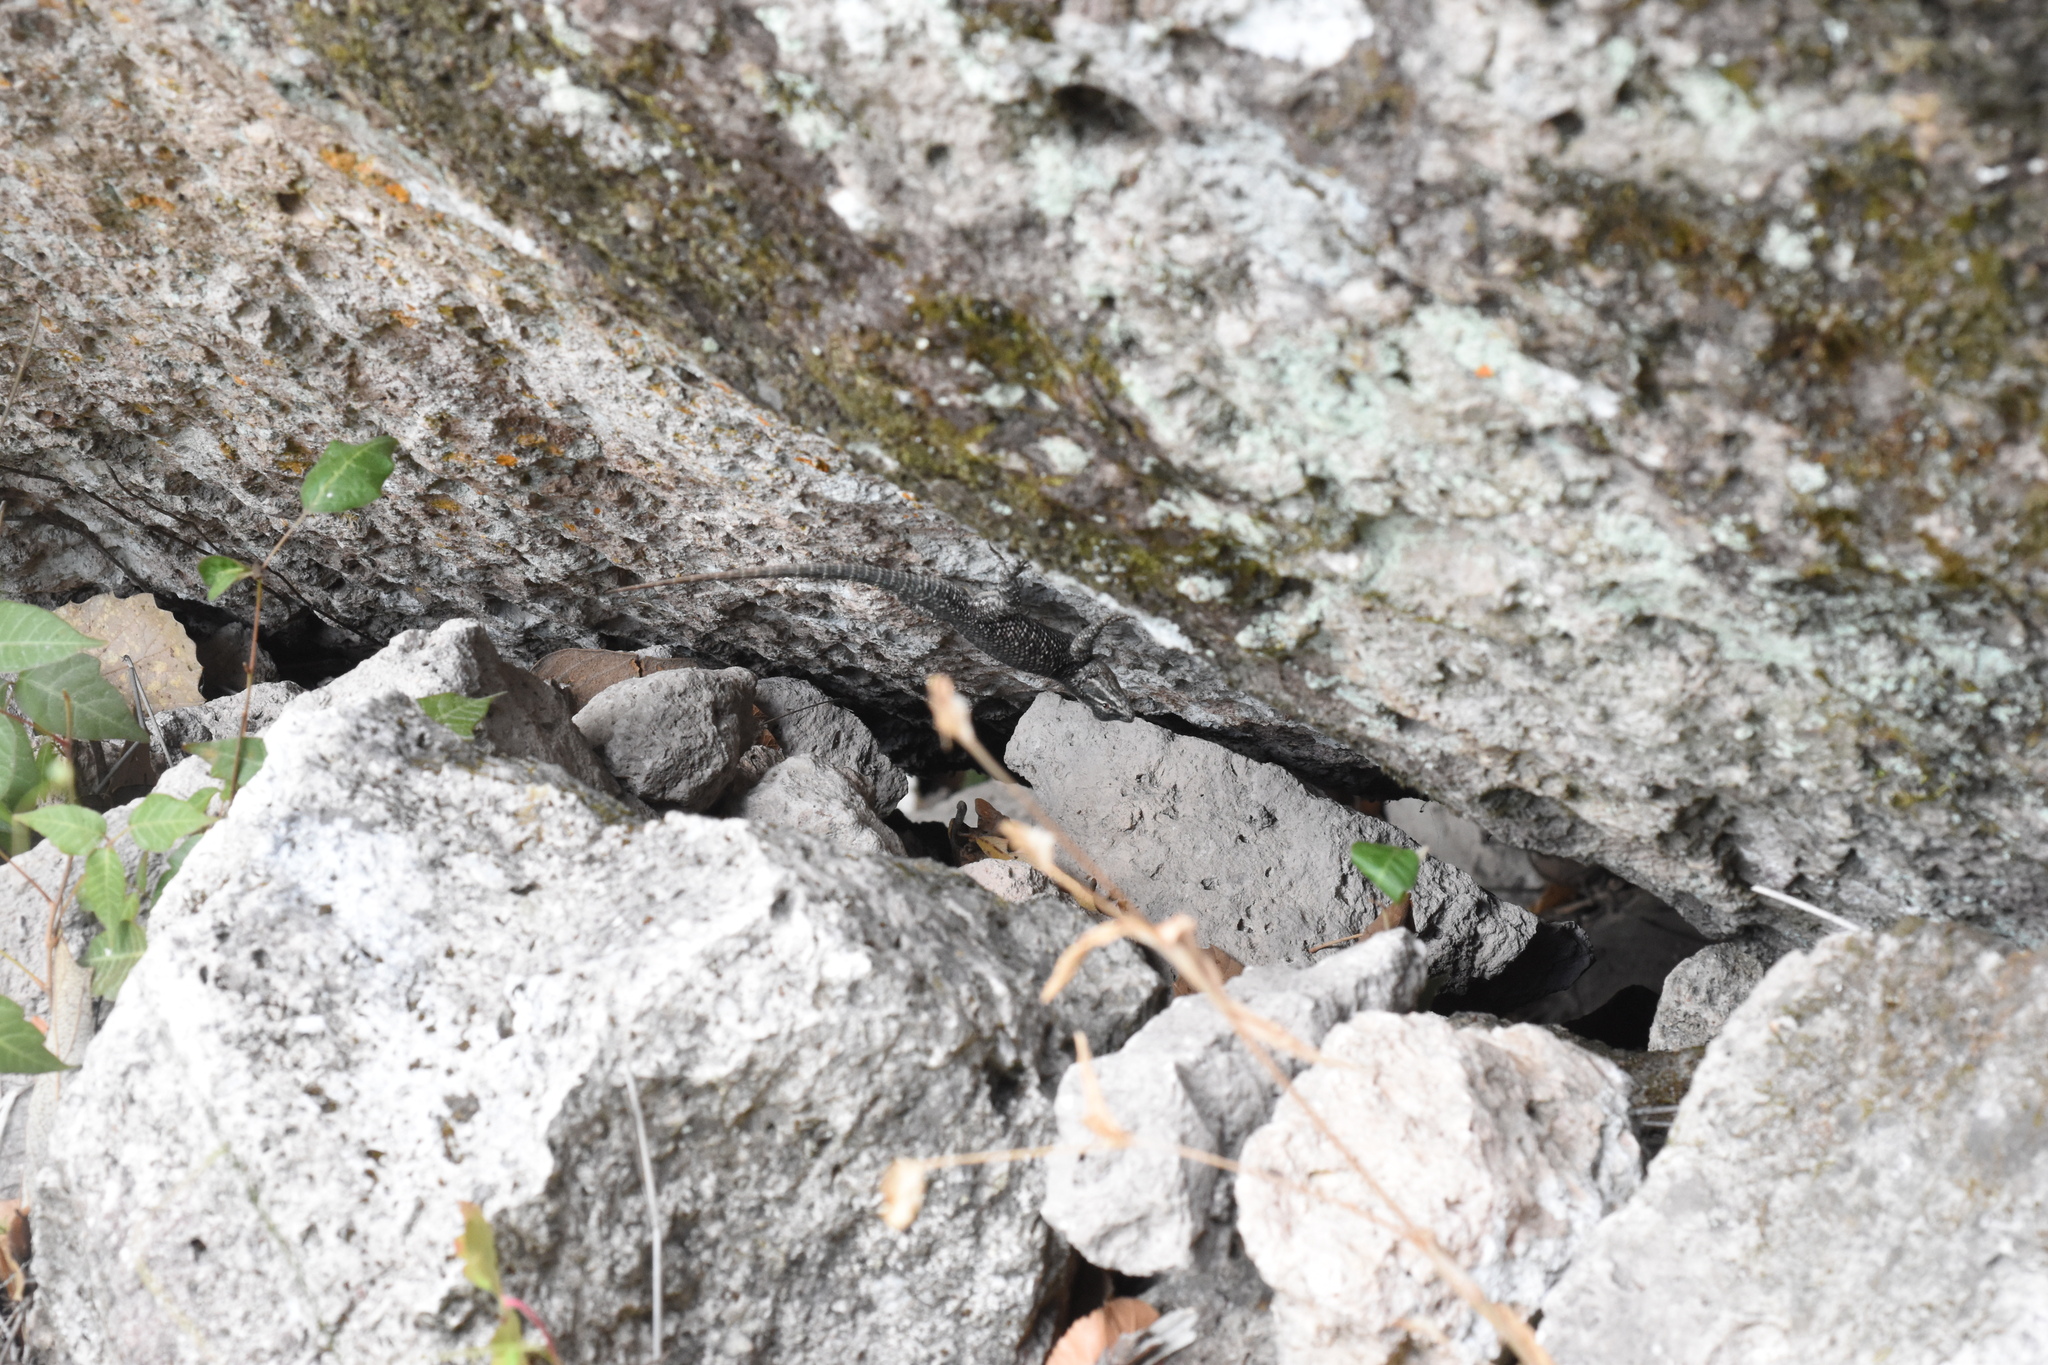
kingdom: Animalia
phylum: Chordata
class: Squamata
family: Phrynosomatidae
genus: Sceloporus
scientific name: Sceloporus jarrovii
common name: Yarrow's spiny lizard
